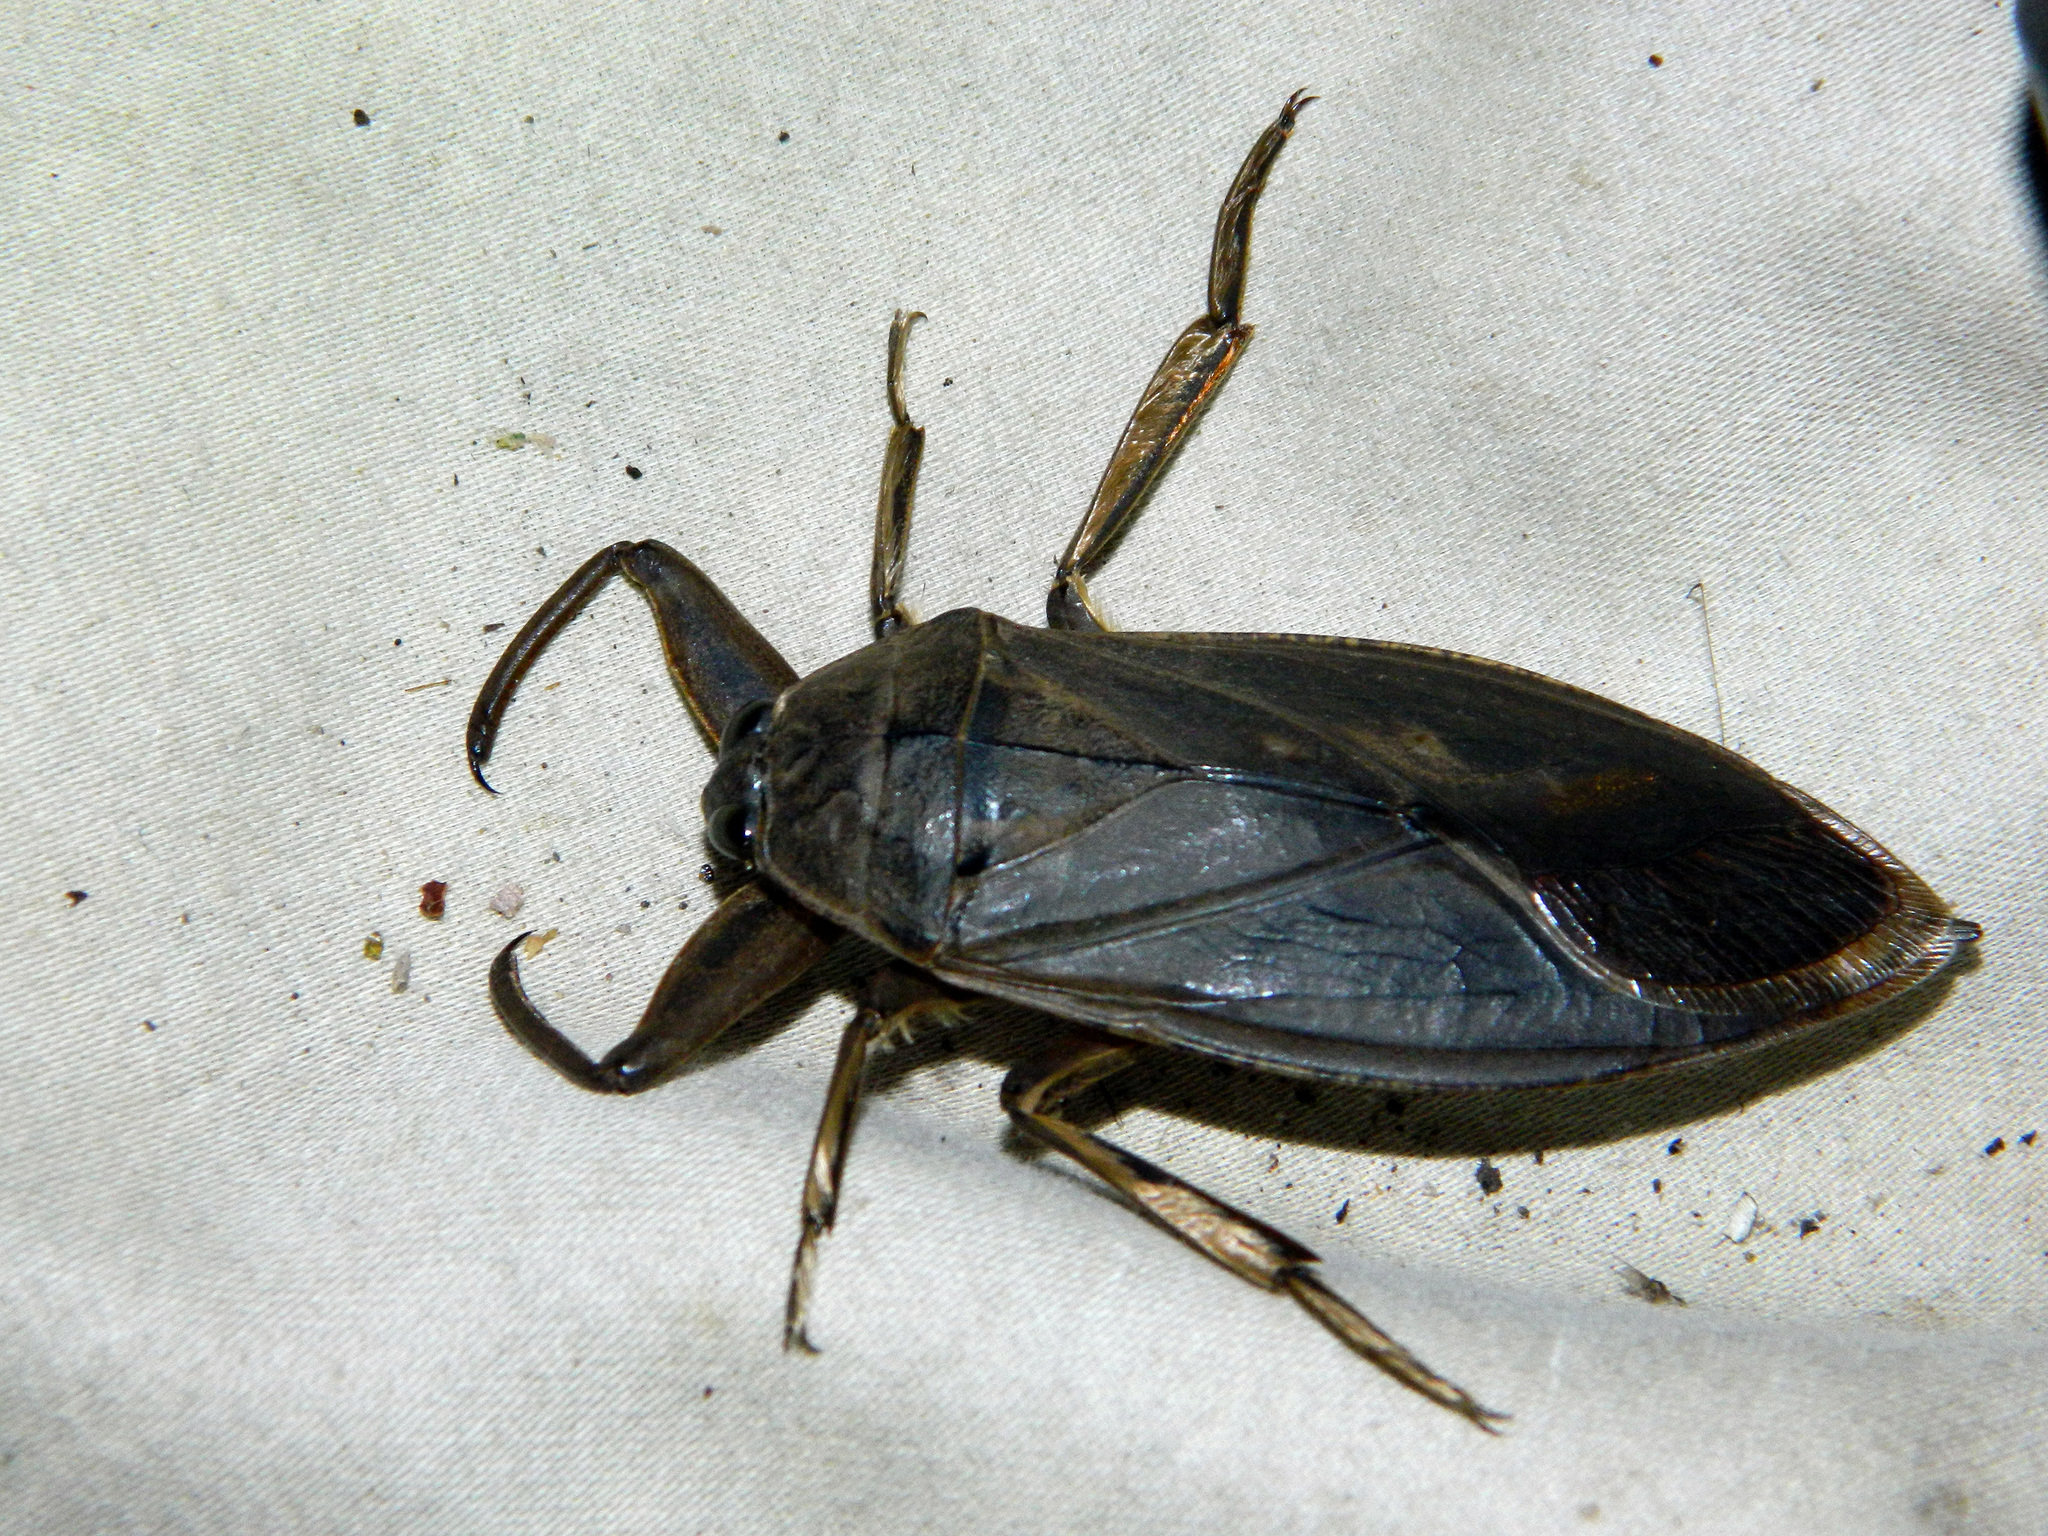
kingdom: Animalia
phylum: Arthropoda
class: Insecta
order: Hemiptera
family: Belostomatidae
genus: Lethocerus
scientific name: Lethocerus americanus
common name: Giant water bug
